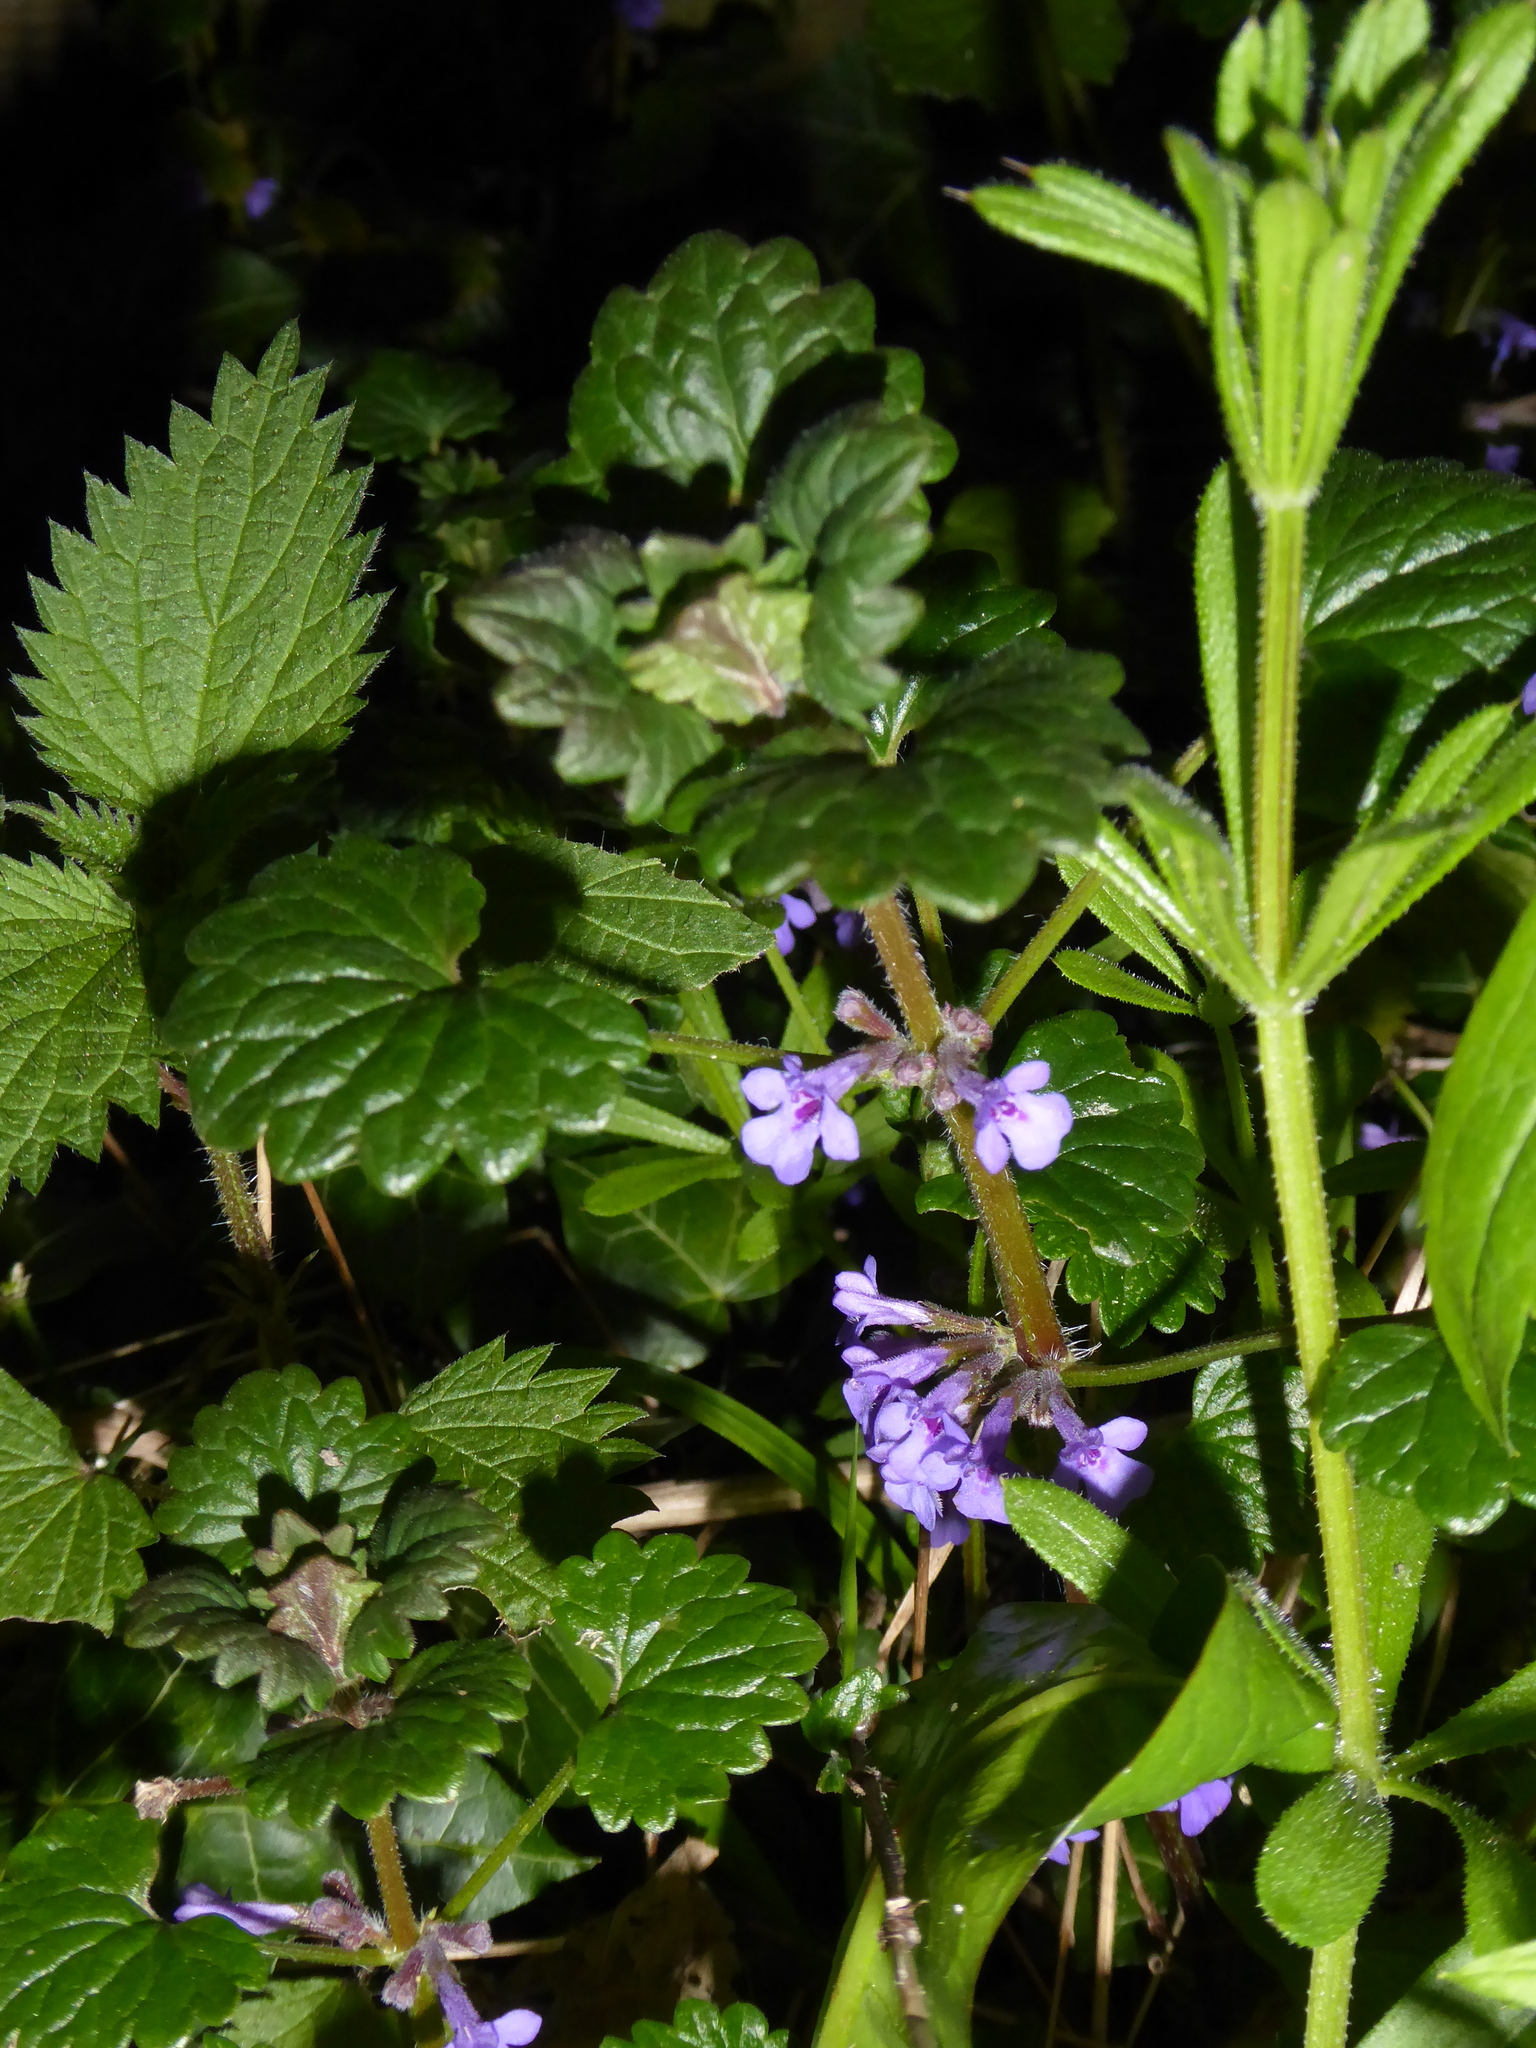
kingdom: Plantae
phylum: Tracheophyta
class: Magnoliopsida
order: Lamiales
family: Lamiaceae
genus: Glechoma
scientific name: Glechoma hederacea
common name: Ground ivy
